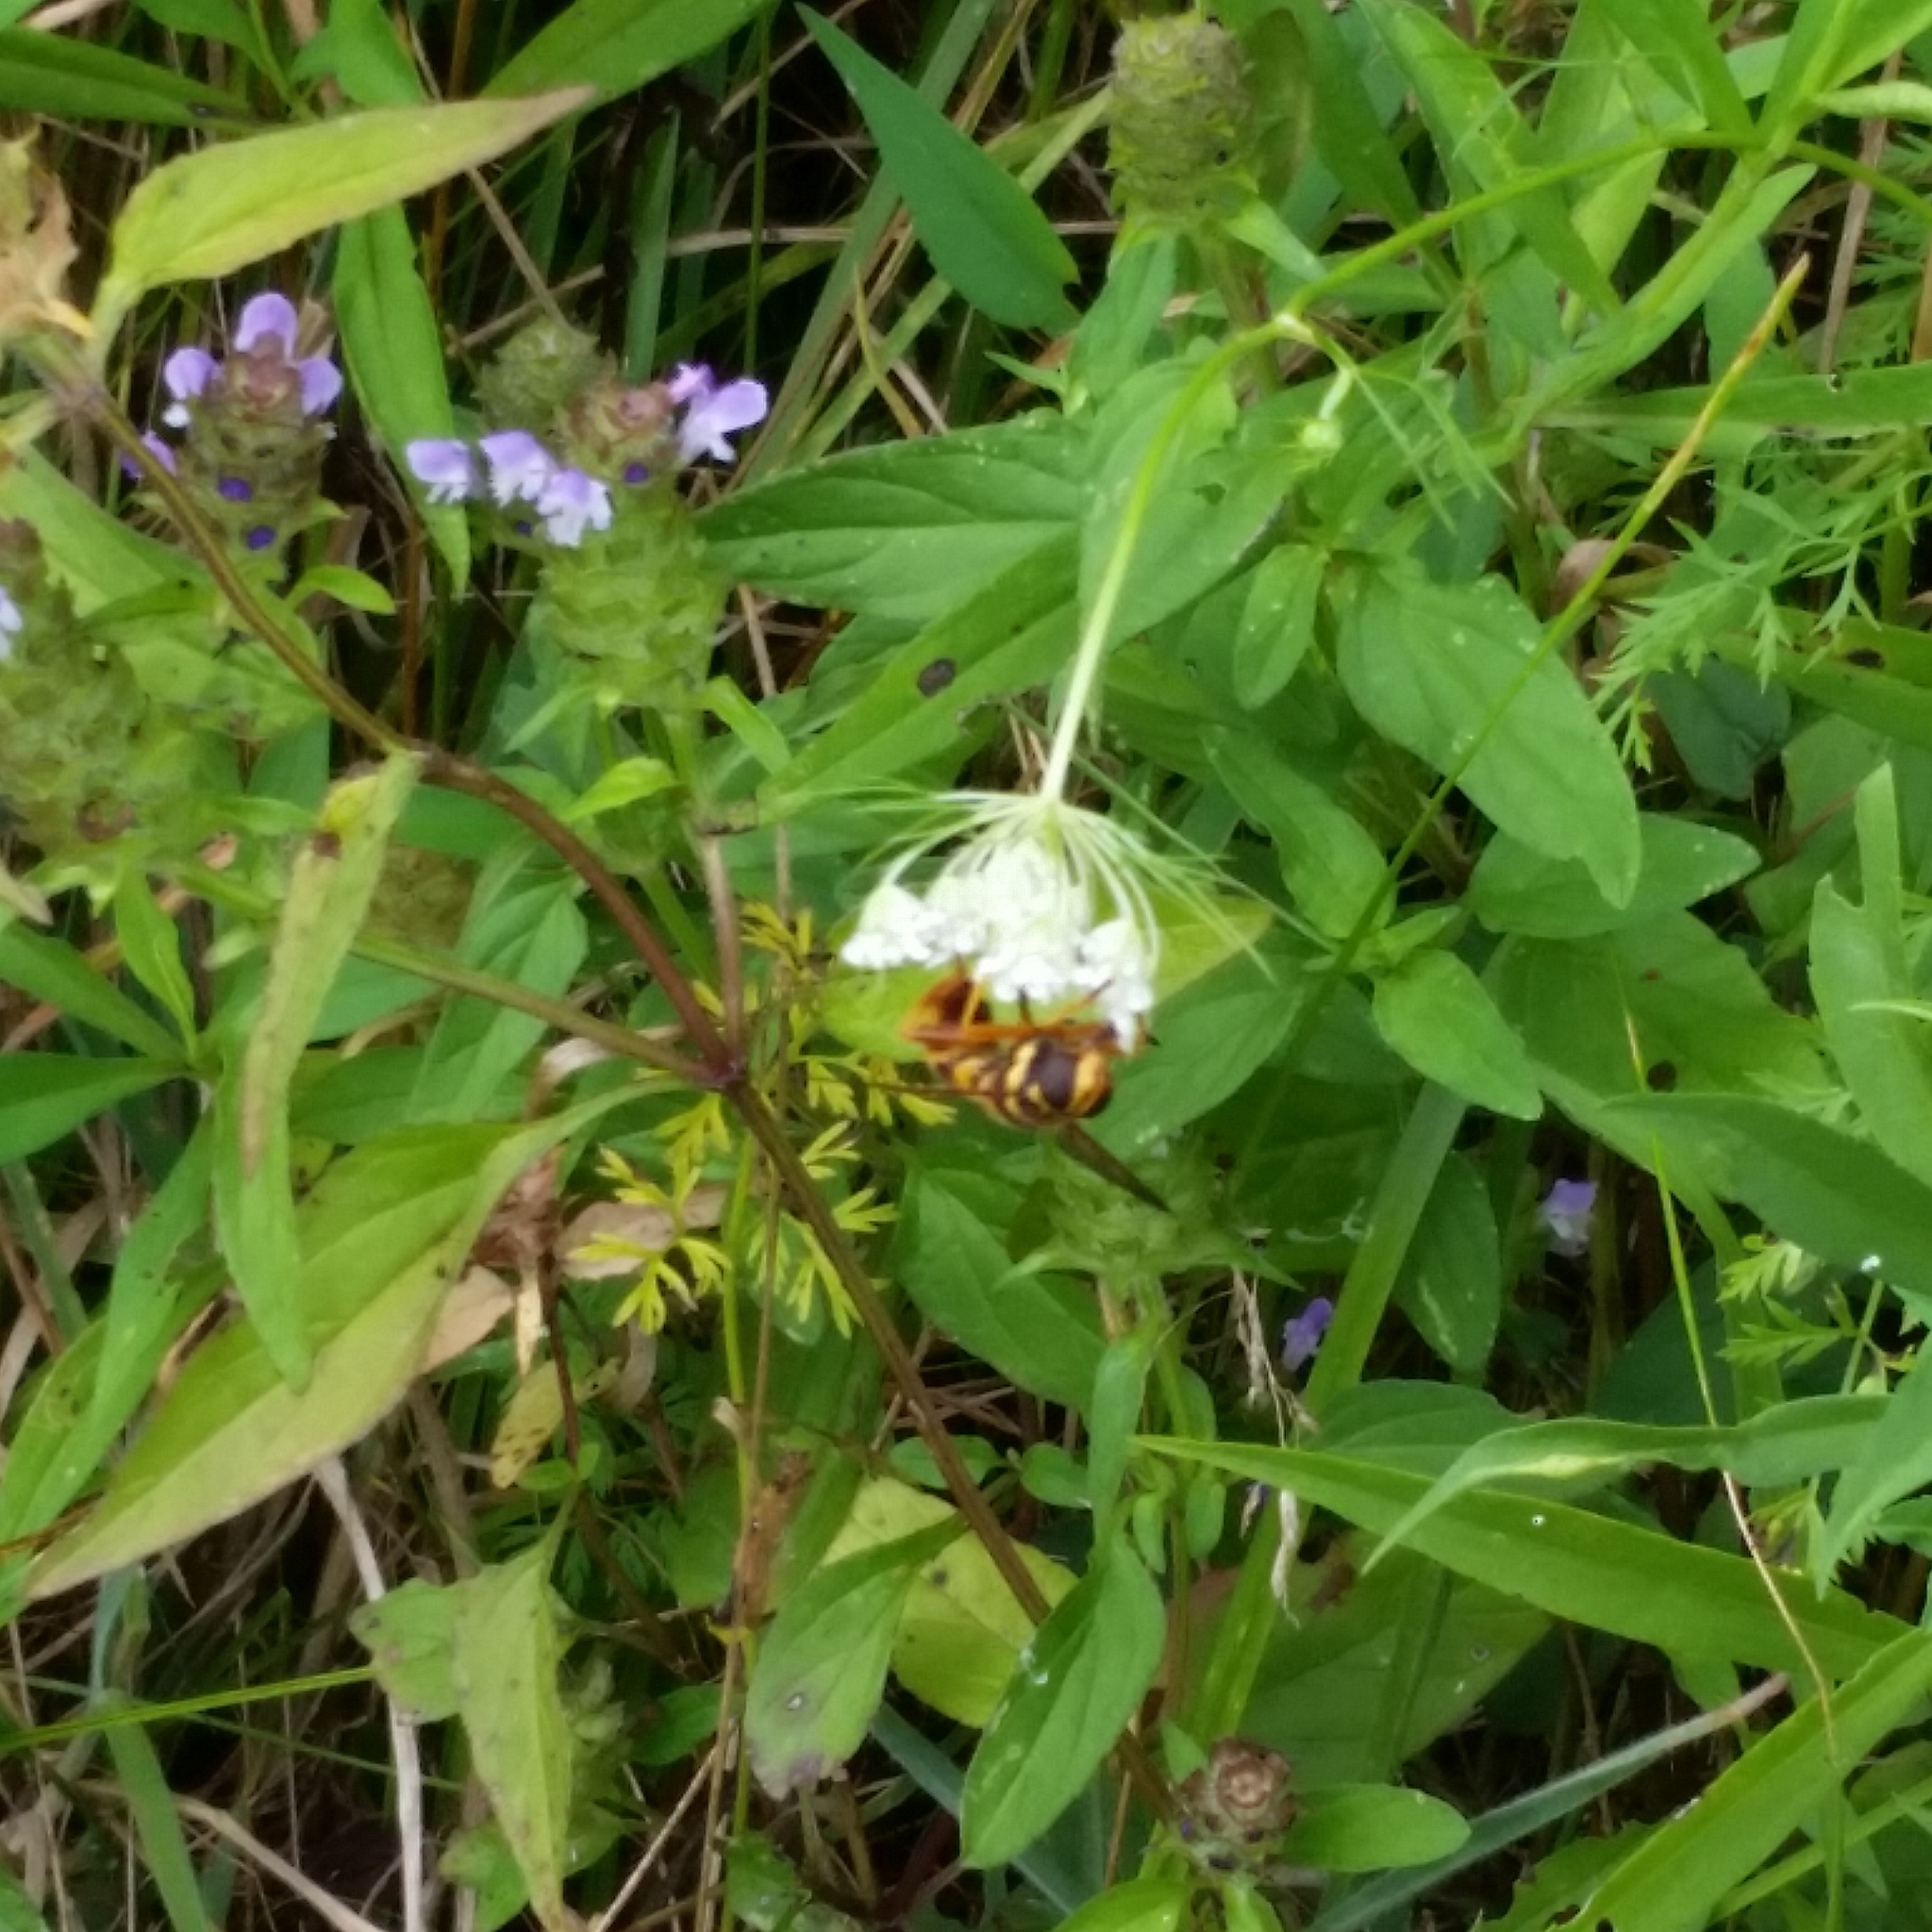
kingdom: Animalia
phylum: Arthropoda
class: Insecta
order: Diptera
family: Syrphidae
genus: Milesia
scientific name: Milesia virginiensis
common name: Virginia giant
